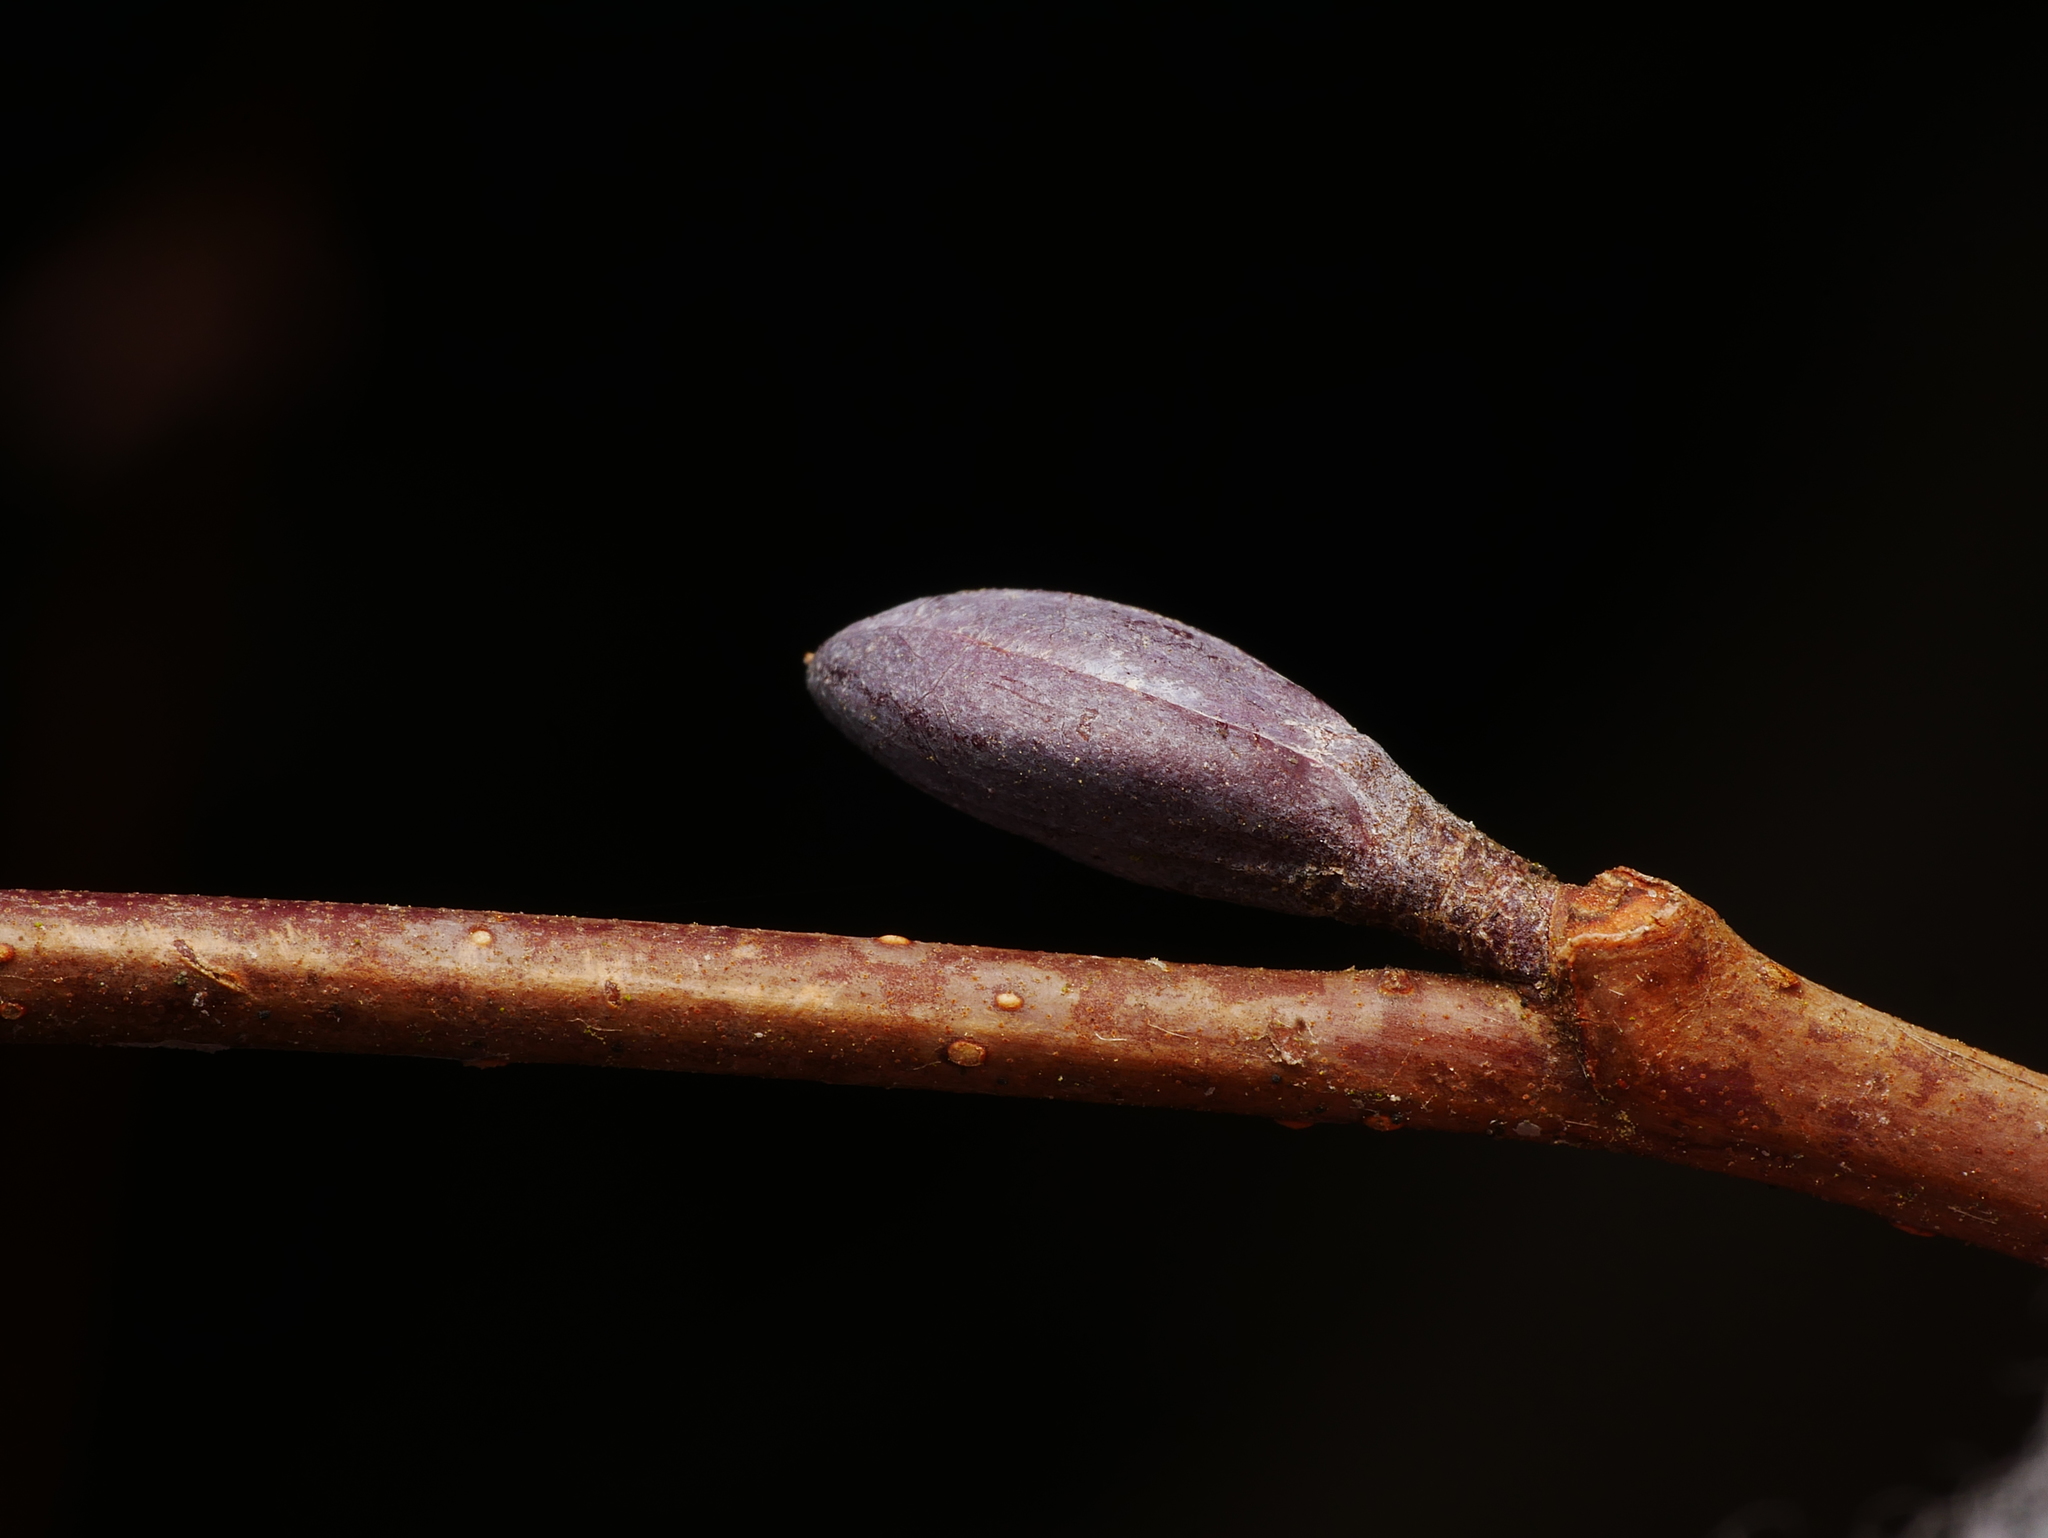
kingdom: Plantae
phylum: Tracheophyta
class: Magnoliopsida
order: Fagales
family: Betulaceae
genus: Alnus
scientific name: Alnus glutinosa
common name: Black alder
